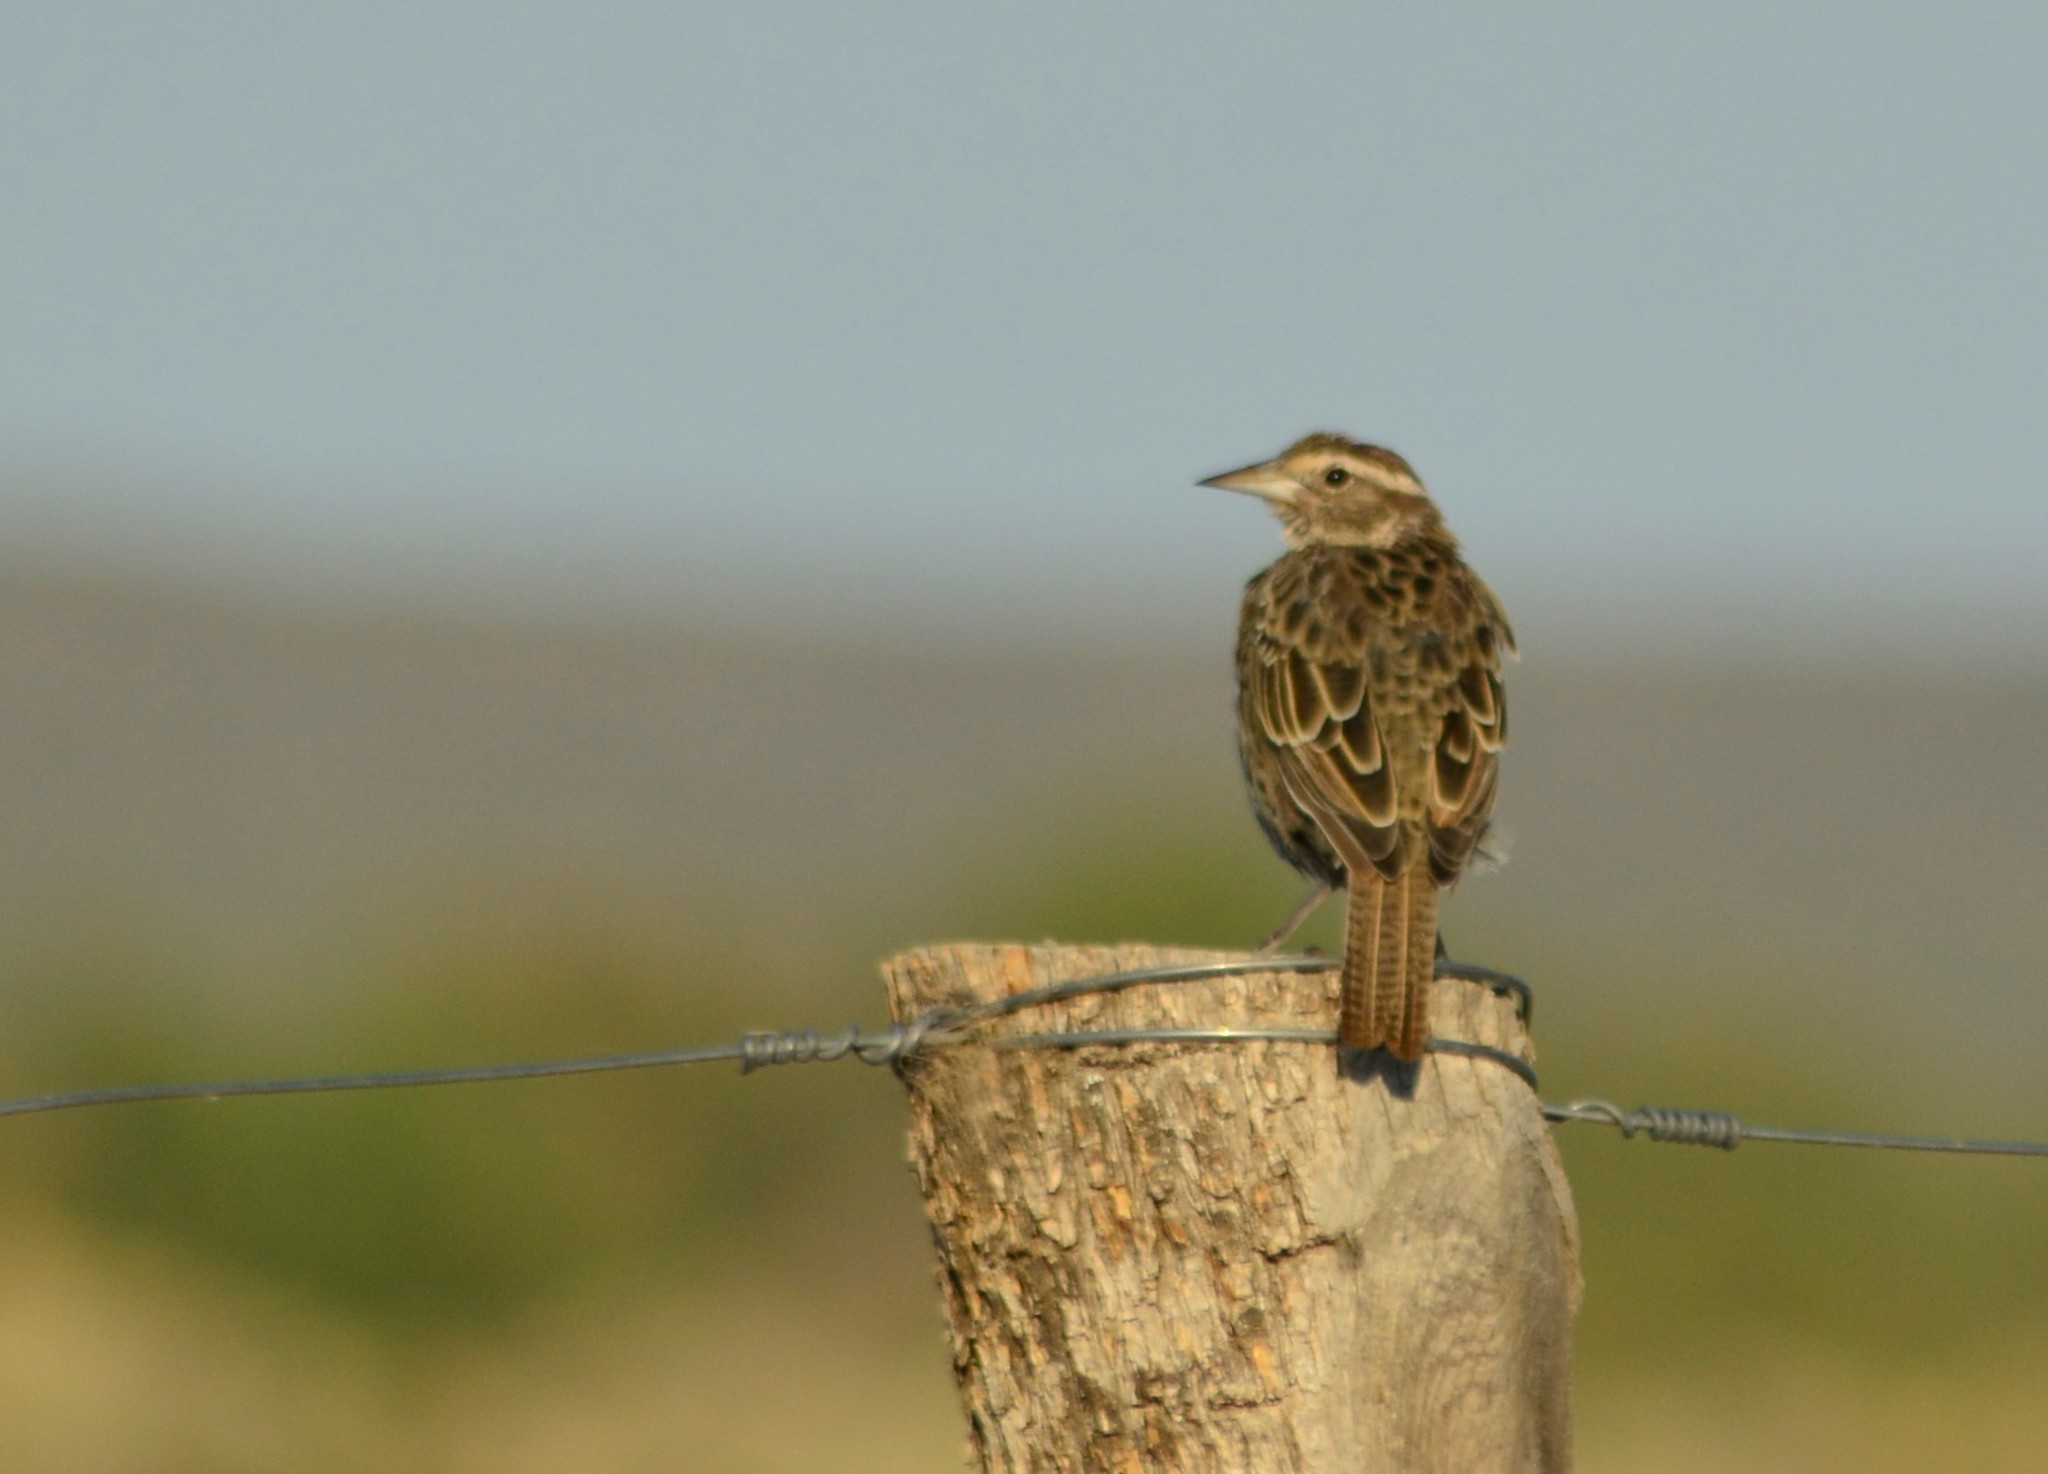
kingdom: Animalia
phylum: Chordata
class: Aves
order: Passeriformes
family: Icteridae
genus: Sturnella
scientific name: Sturnella loyca
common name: Long-tailed meadowlark
